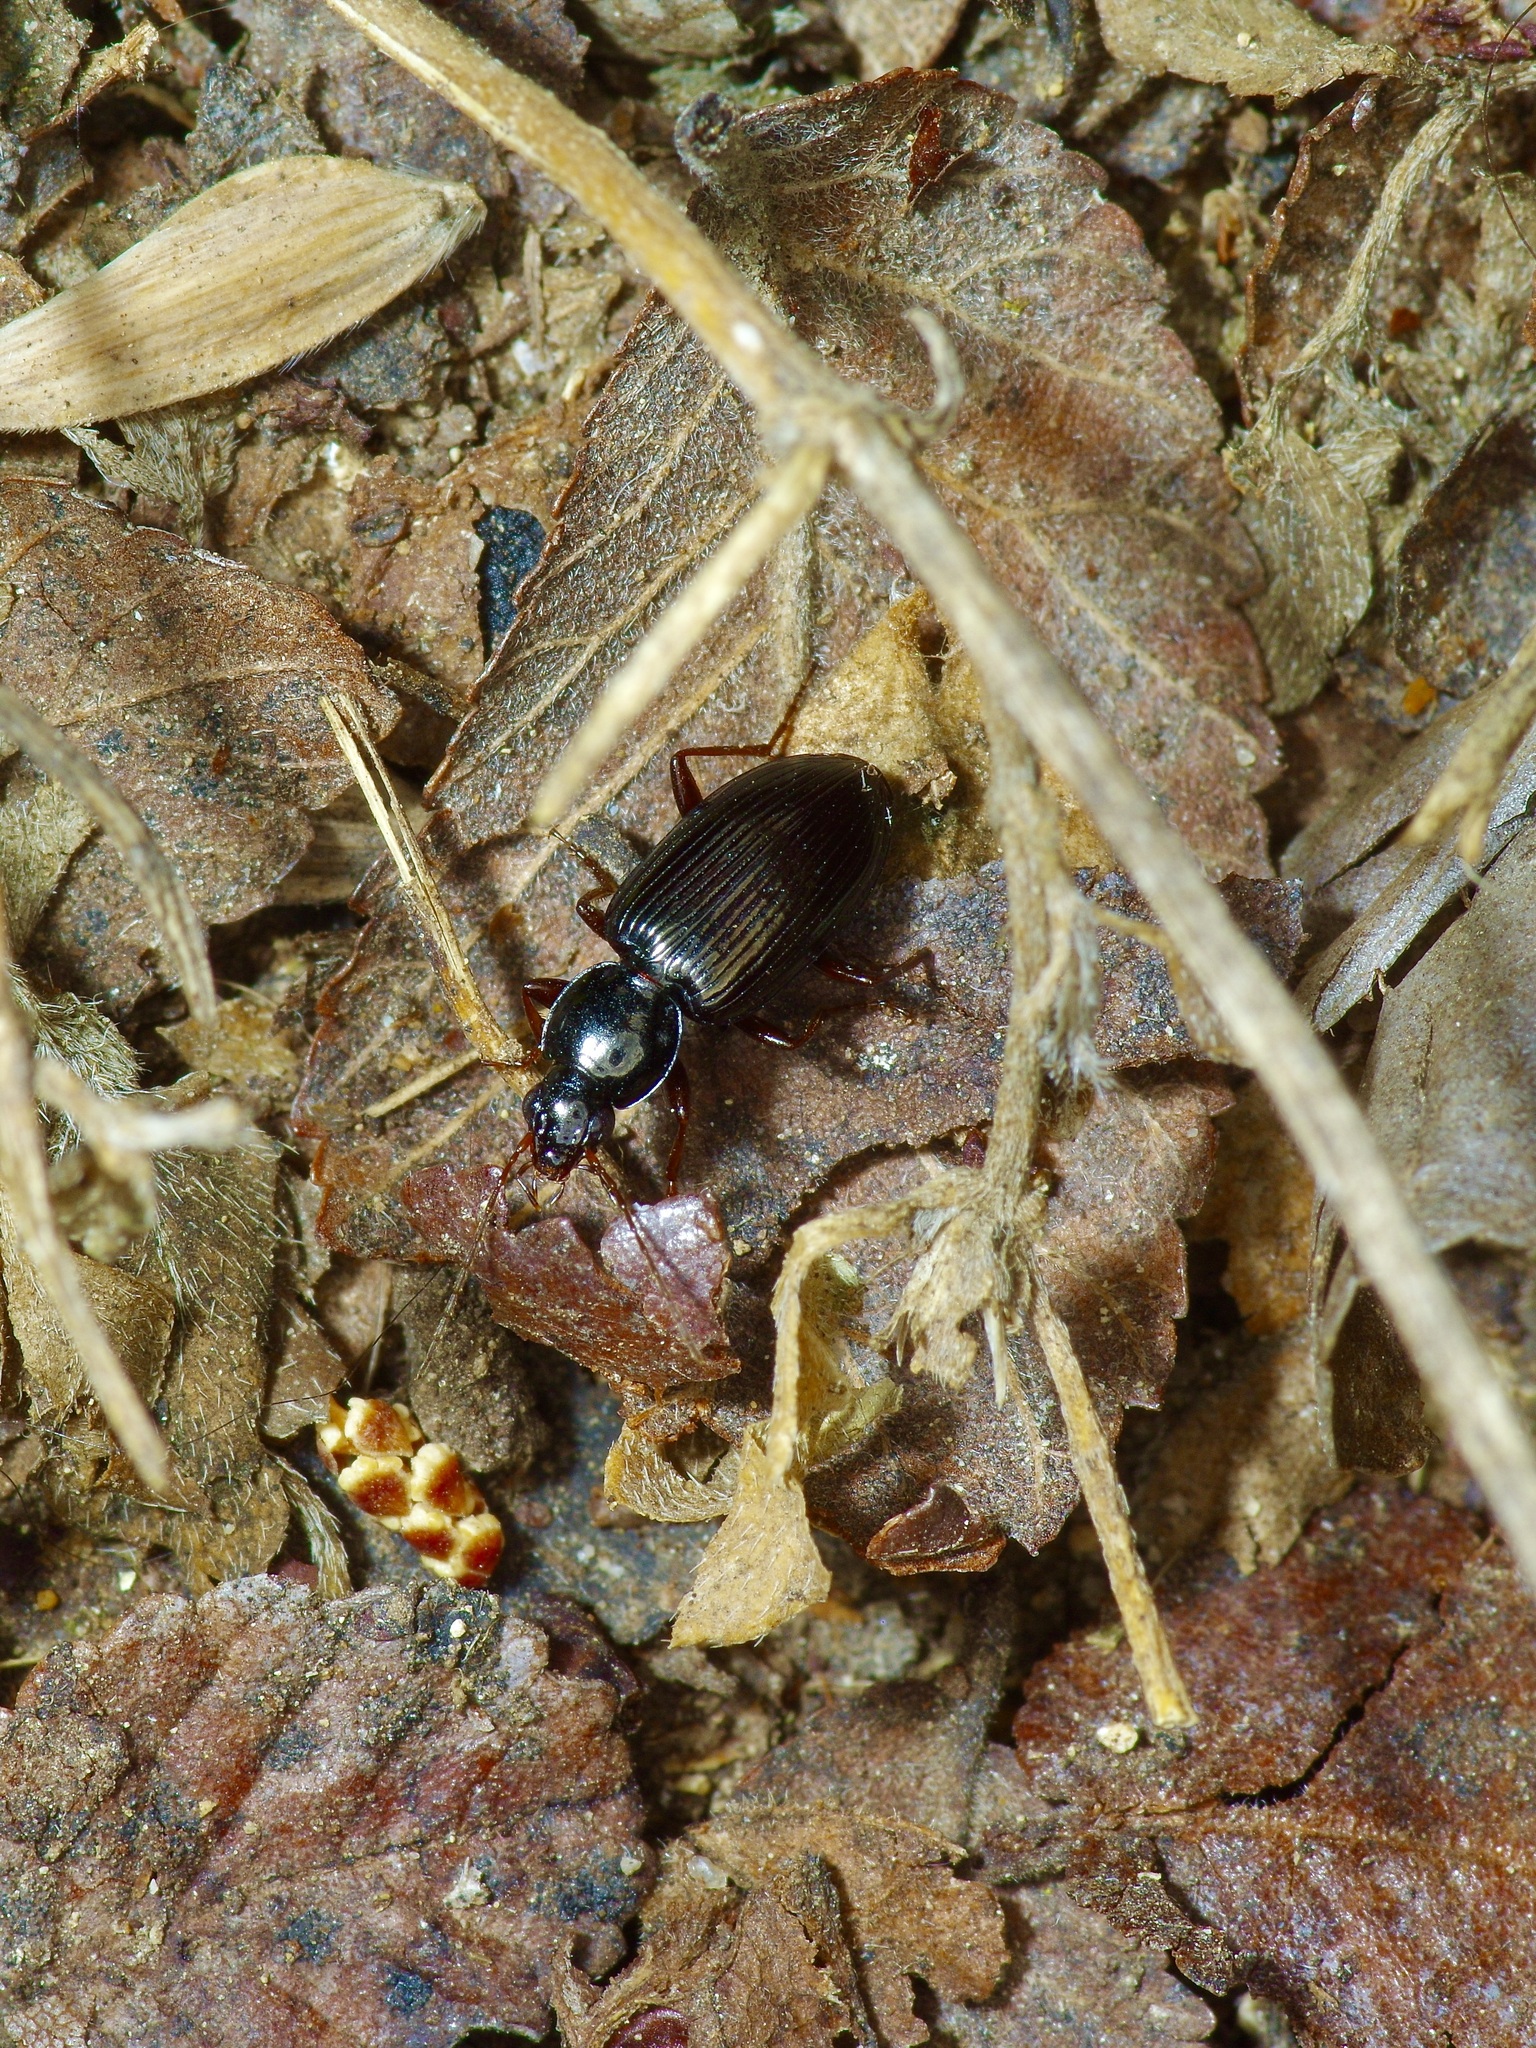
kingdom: Animalia
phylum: Arthropoda
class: Insecta
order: Coleoptera
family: Carabidae
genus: Agonum
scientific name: Agonum punctiforme
